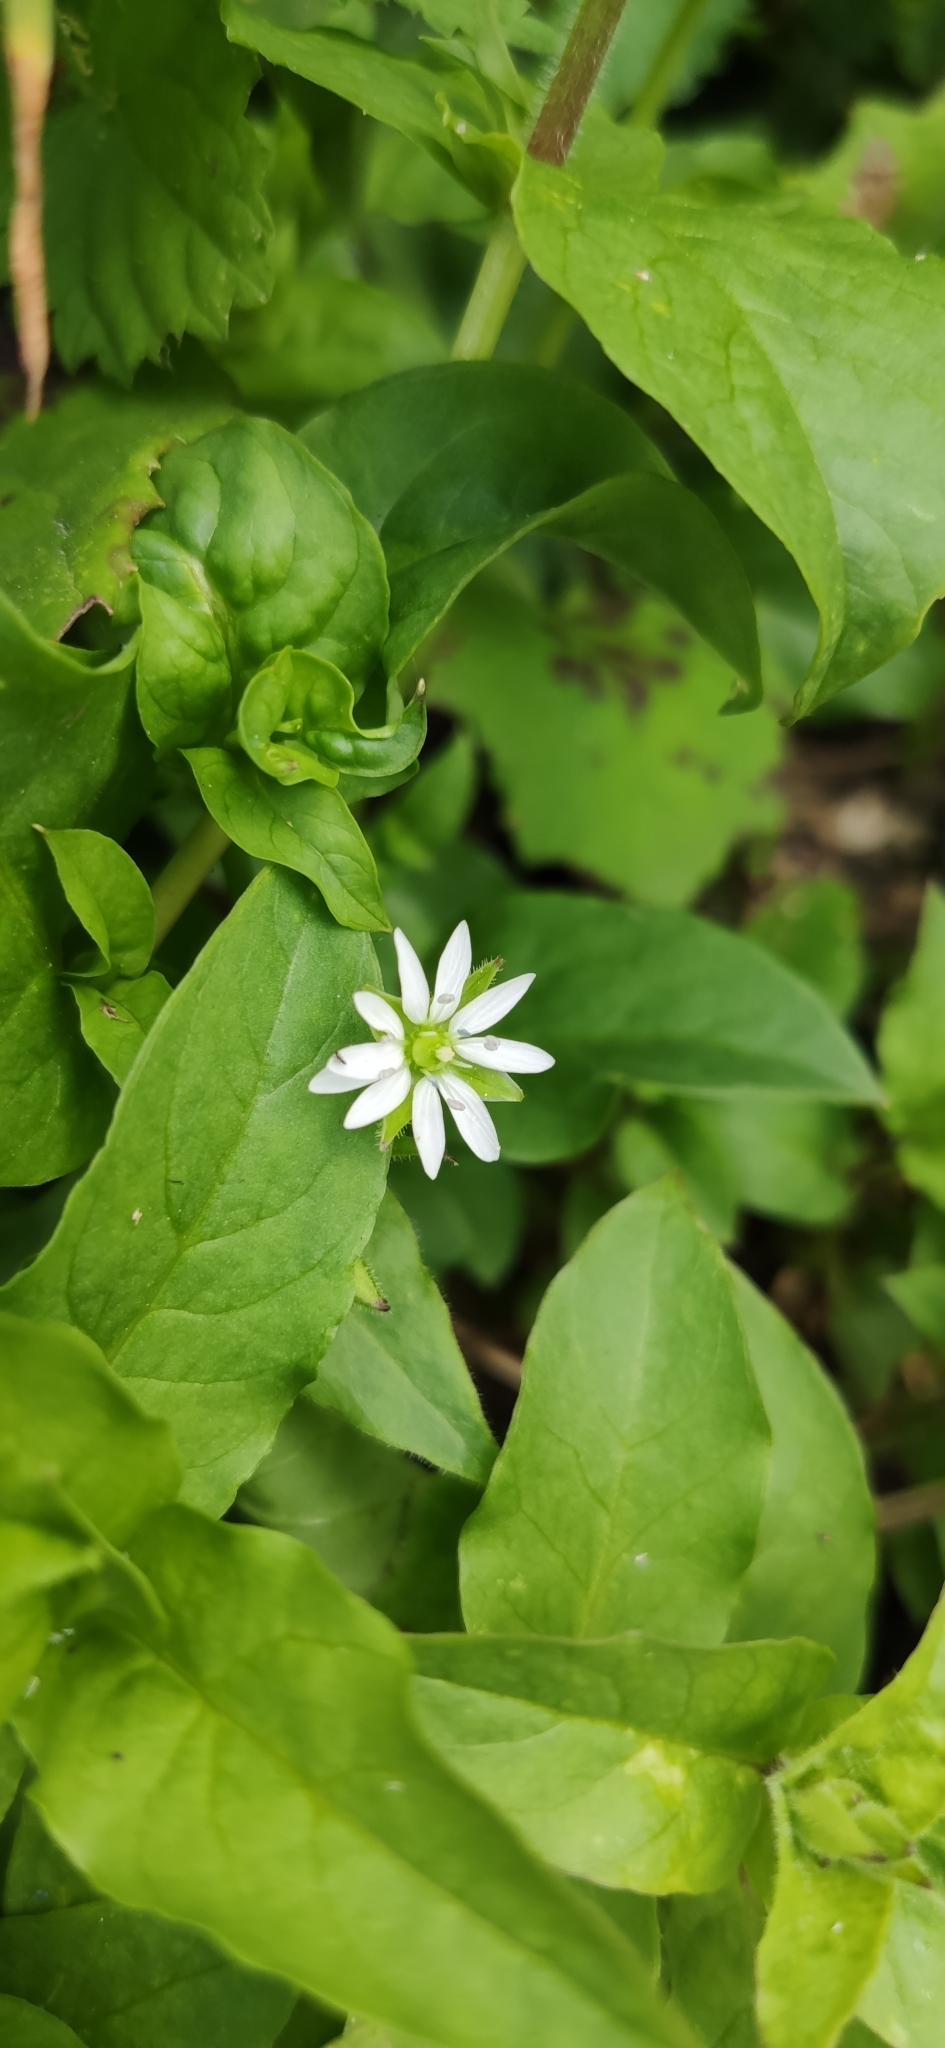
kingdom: Plantae
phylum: Tracheophyta
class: Magnoliopsida
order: Caryophyllales
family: Caryophyllaceae
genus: Stellaria
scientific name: Stellaria aquatica
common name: Water chickweed
